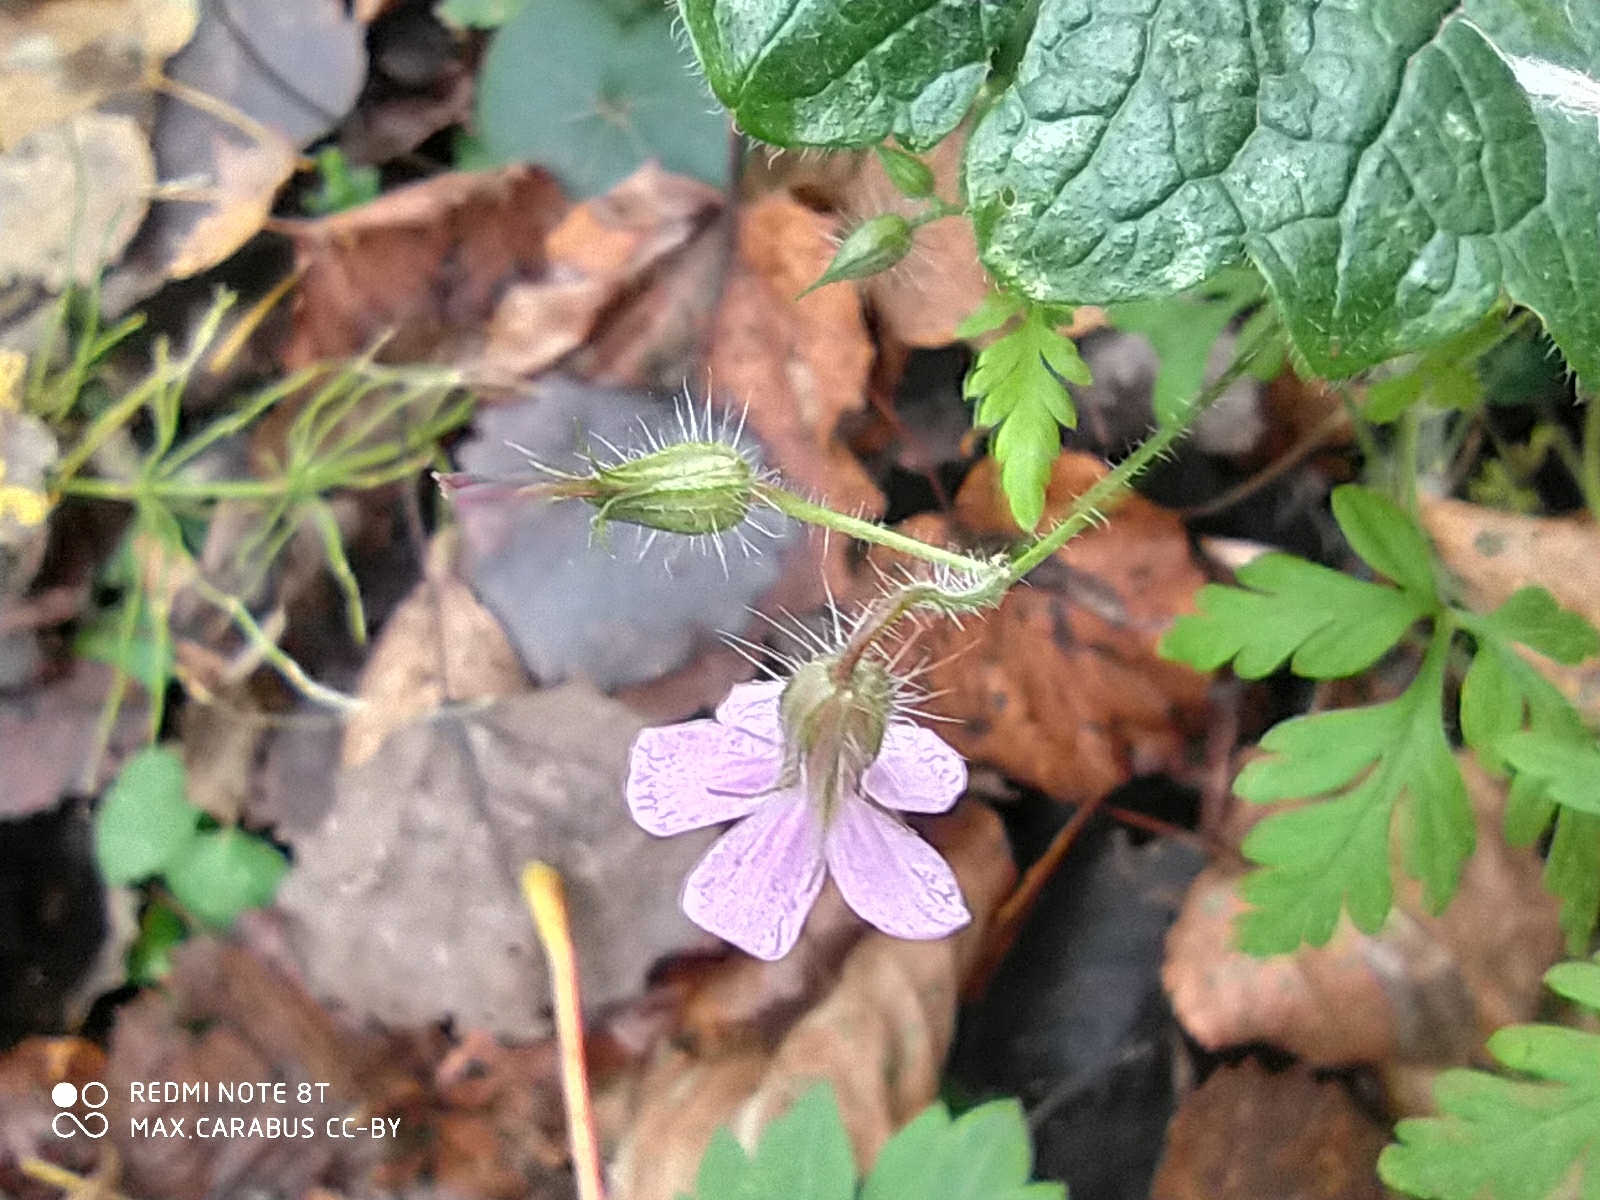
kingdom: Plantae
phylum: Tracheophyta
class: Magnoliopsida
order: Geraniales
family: Geraniaceae
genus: Geranium
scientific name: Geranium robertianum
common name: Herb-robert
